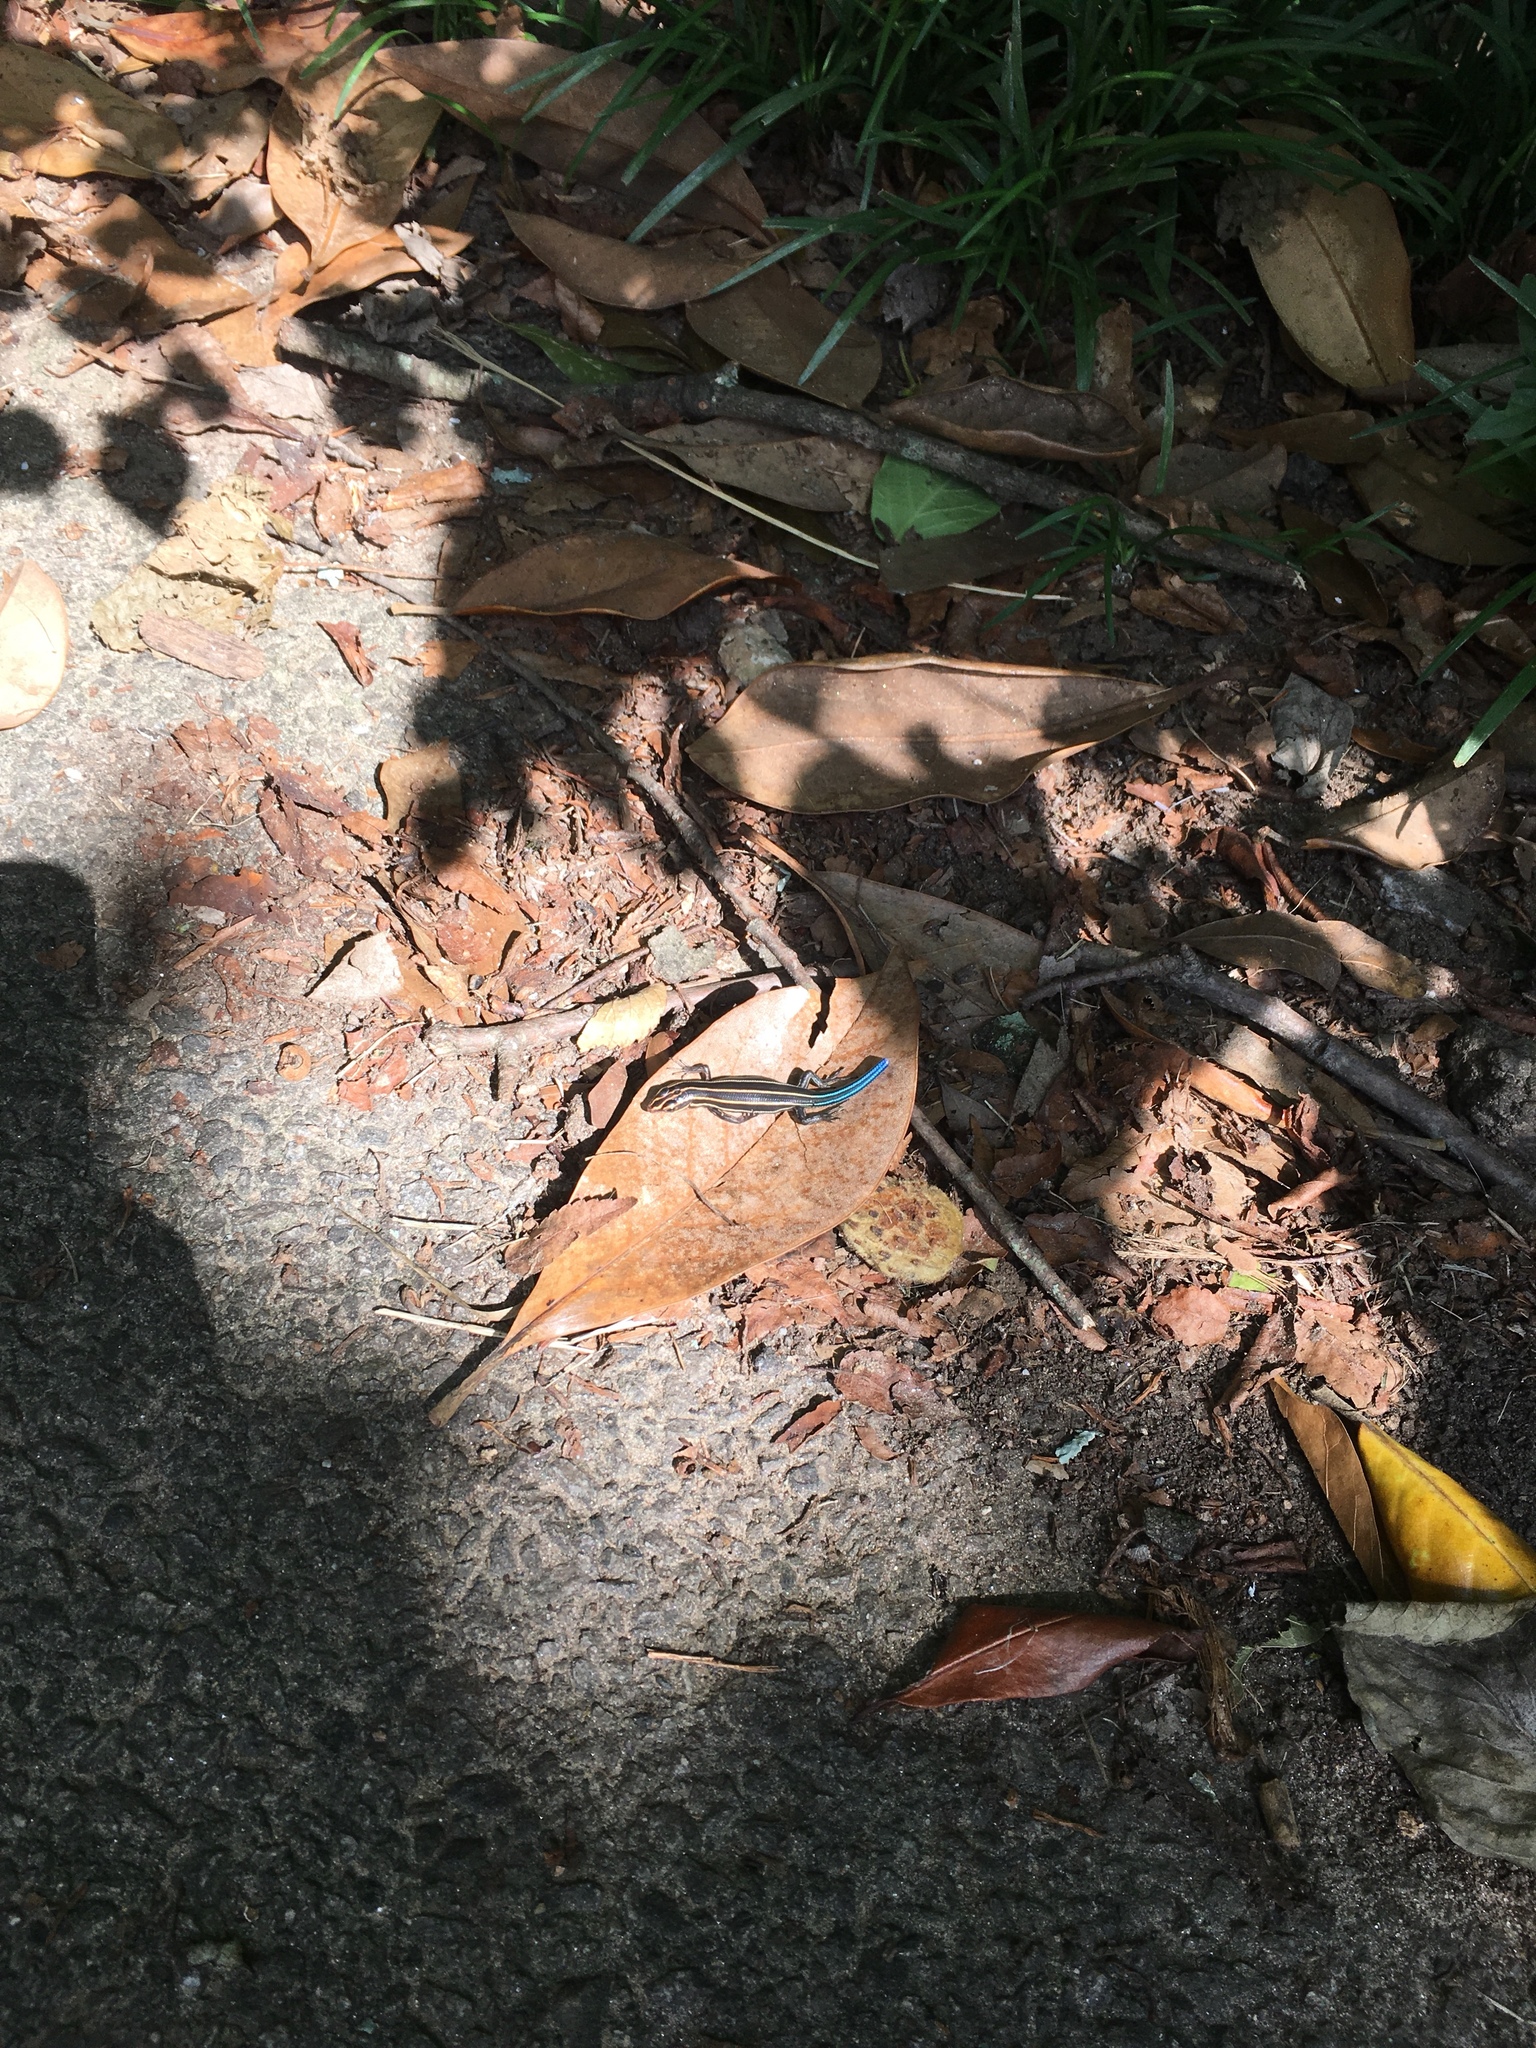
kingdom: Animalia
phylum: Chordata
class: Squamata
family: Scincidae
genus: Plestiodon
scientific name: Plestiodon fasciatus
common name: Five-lined skink
